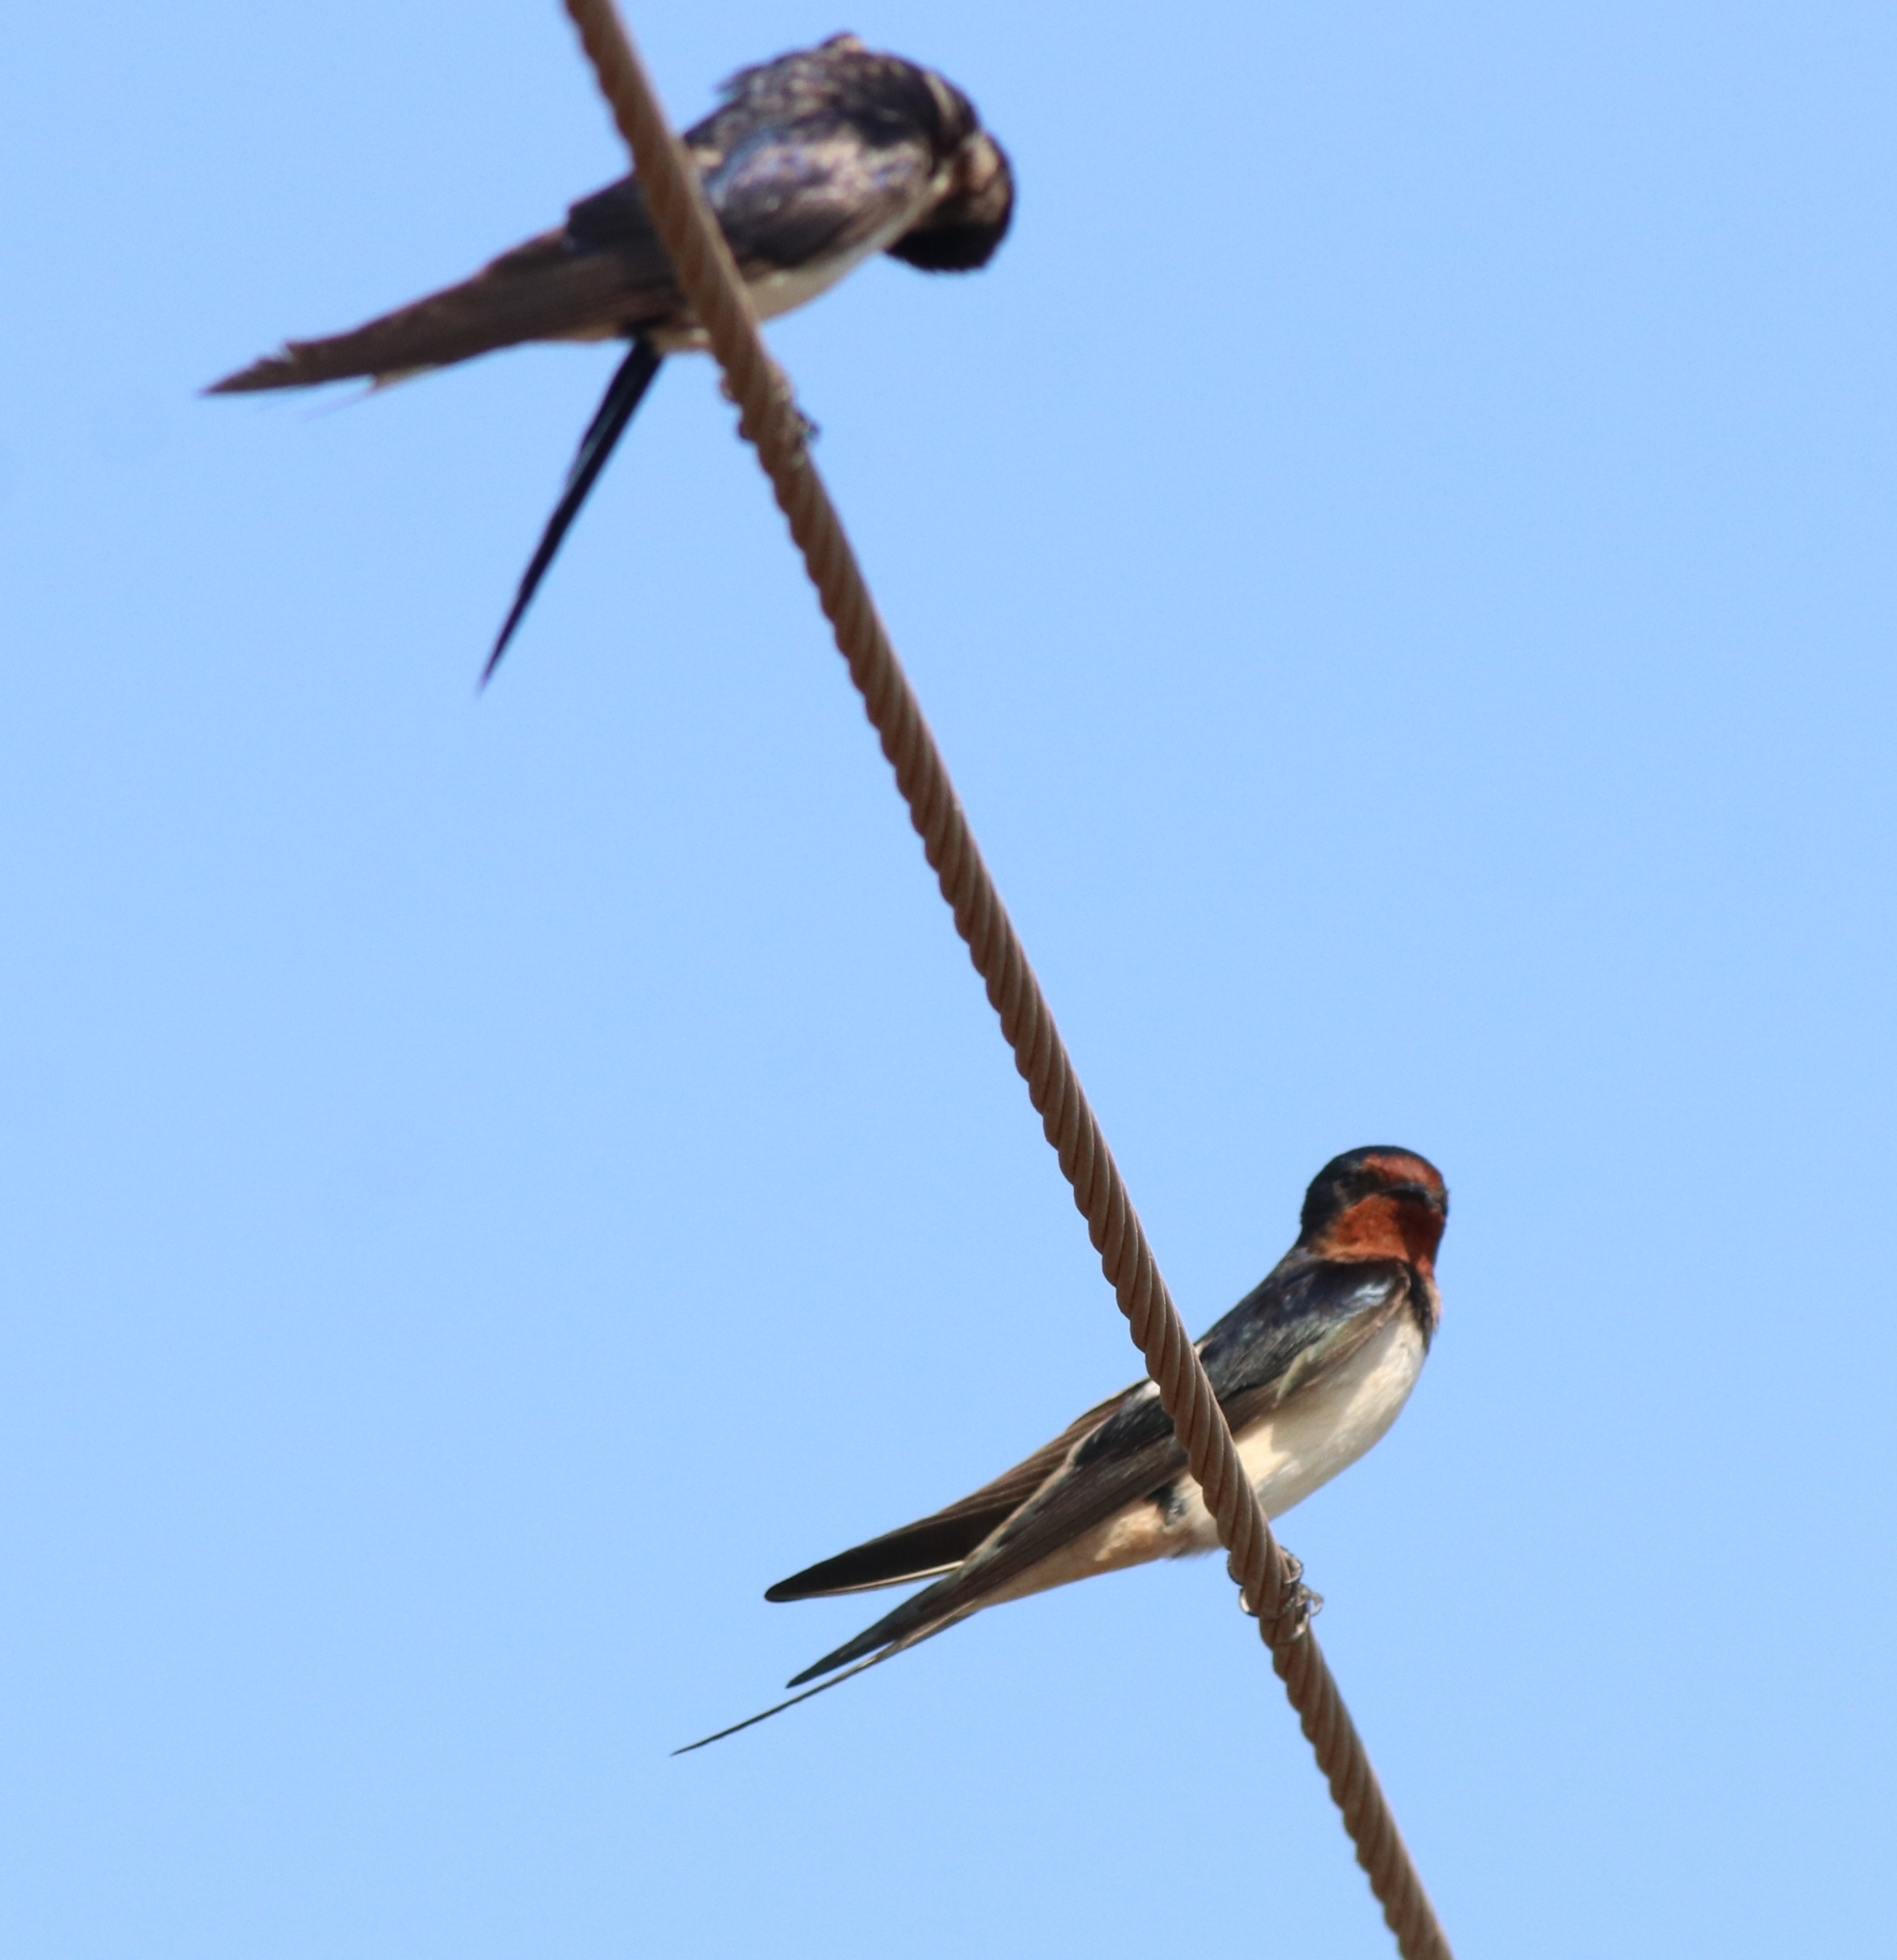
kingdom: Animalia
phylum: Chordata
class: Aves
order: Passeriformes
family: Hirundinidae
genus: Hirundo
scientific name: Hirundo rustica
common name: Barn swallow
